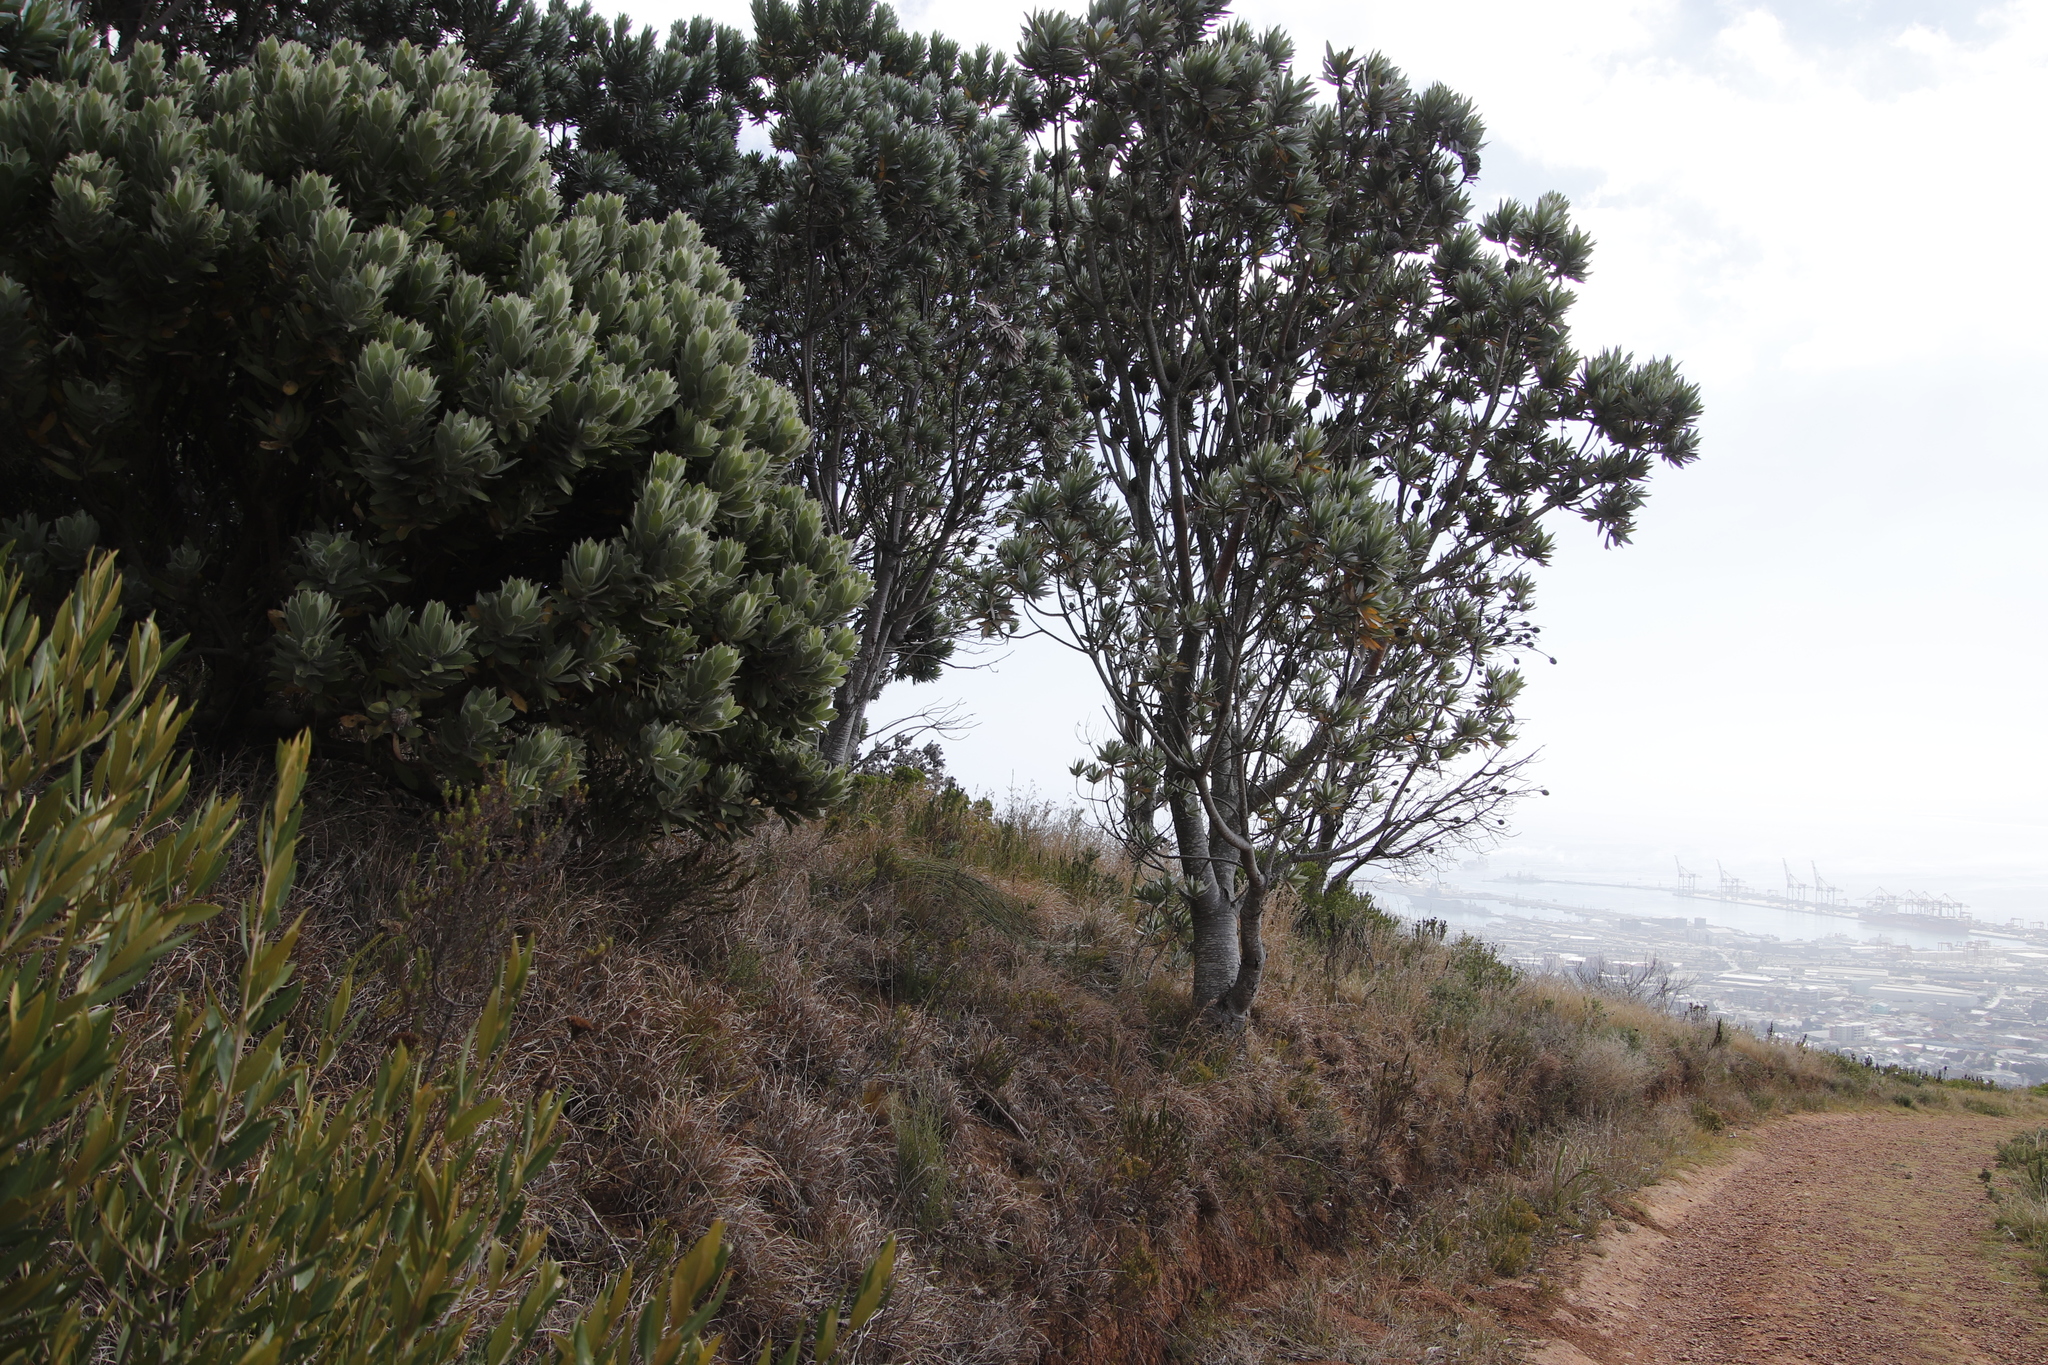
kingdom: Plantae
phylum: Tracheophyta
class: Magnoliopsida
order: Proteales
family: Proteaceae
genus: Leucadendron
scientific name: Leucadendron argenteum
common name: Cape silver tree
